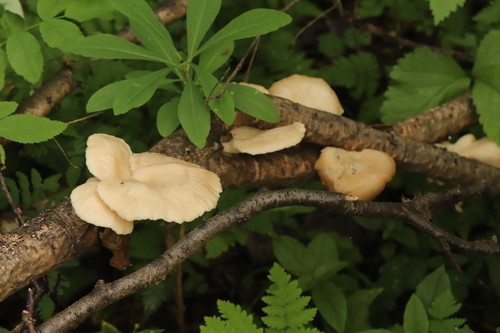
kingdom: Fungi
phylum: Basidiomycota
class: Agaricomycetes
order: Agaricales
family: Pleurotaceae
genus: Pleurotus
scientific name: Pleurotus pulmonarius
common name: Pale oyster
